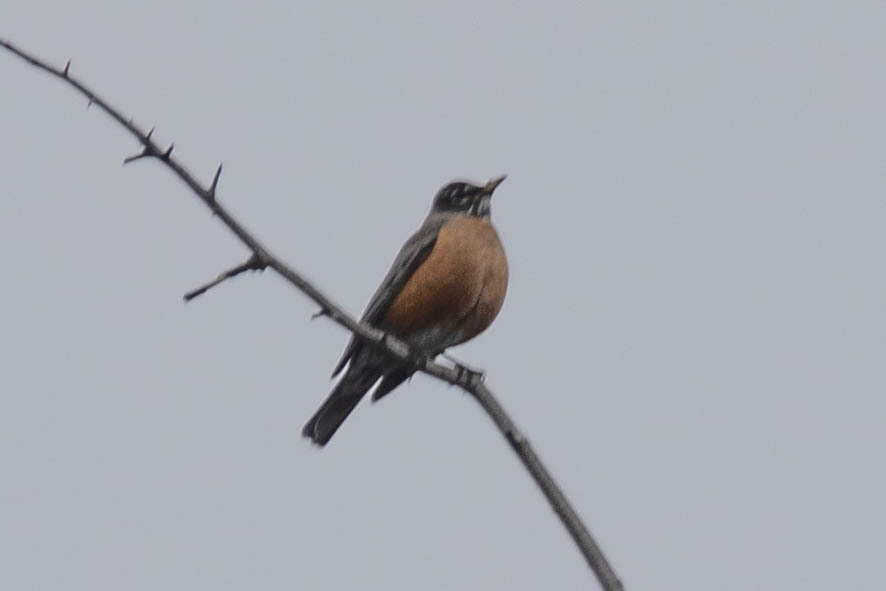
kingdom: Animalia
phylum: Chordata
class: Aves
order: Passeriformes
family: Turdidae
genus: Turdus
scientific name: Turdus migratorius
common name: American robin
